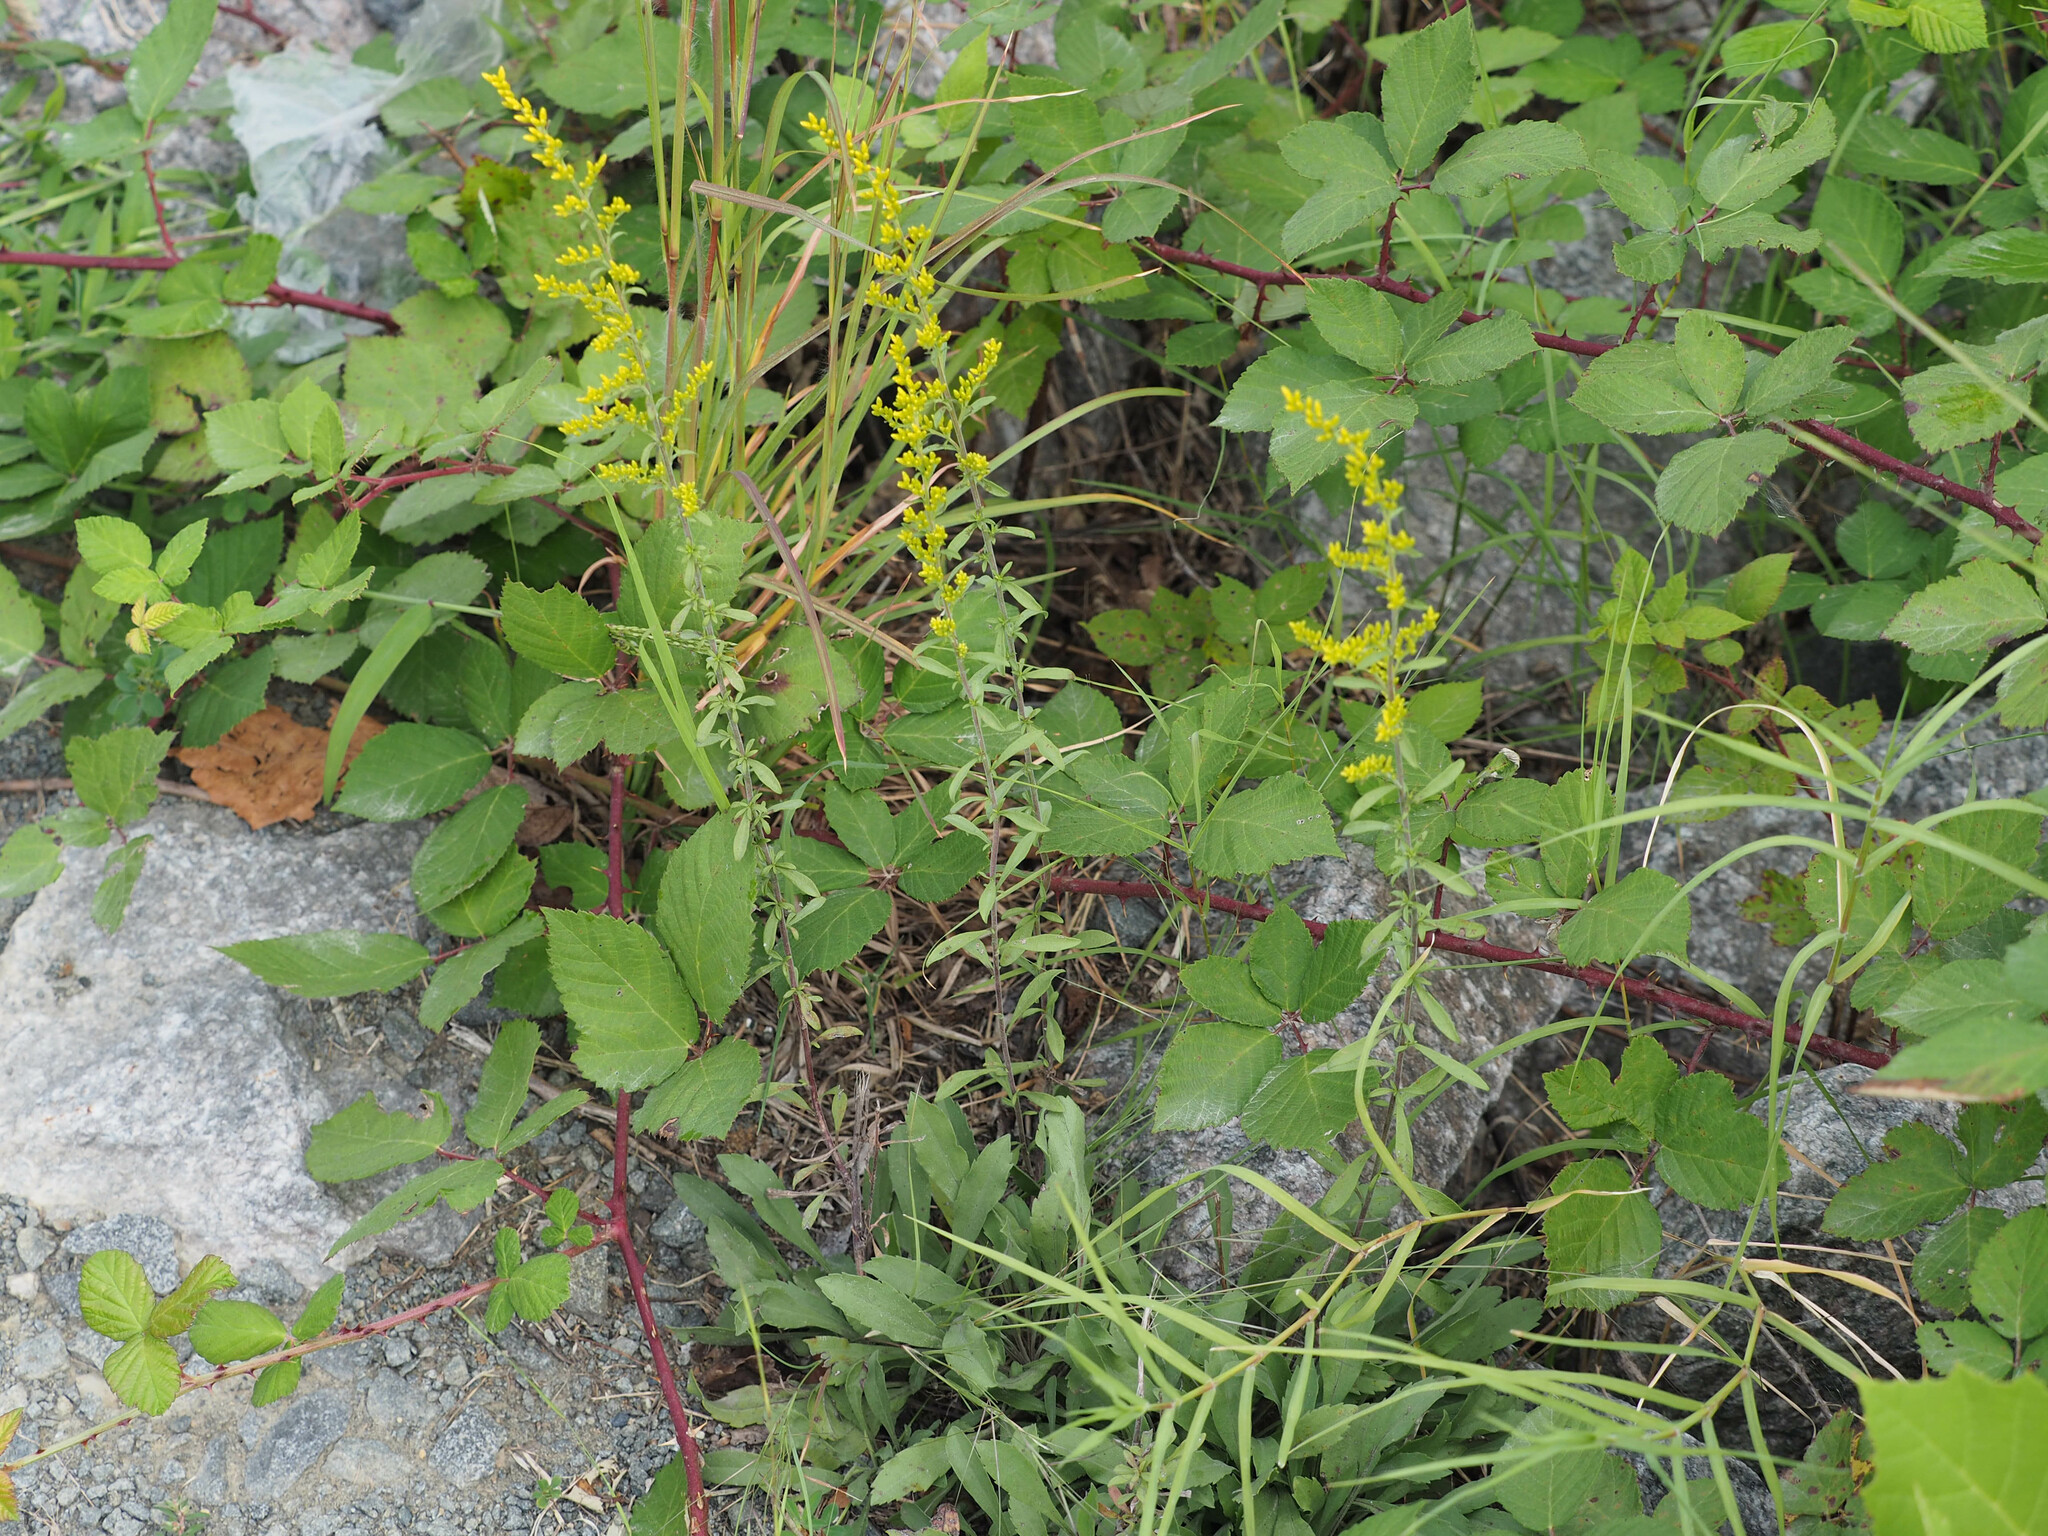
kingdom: Plantae
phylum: Tracheophyta
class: Magnoliopsida
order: Asterales
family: Asteraceae
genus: Solidago
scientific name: Solidago nemoralis
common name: Grey goldenrod
